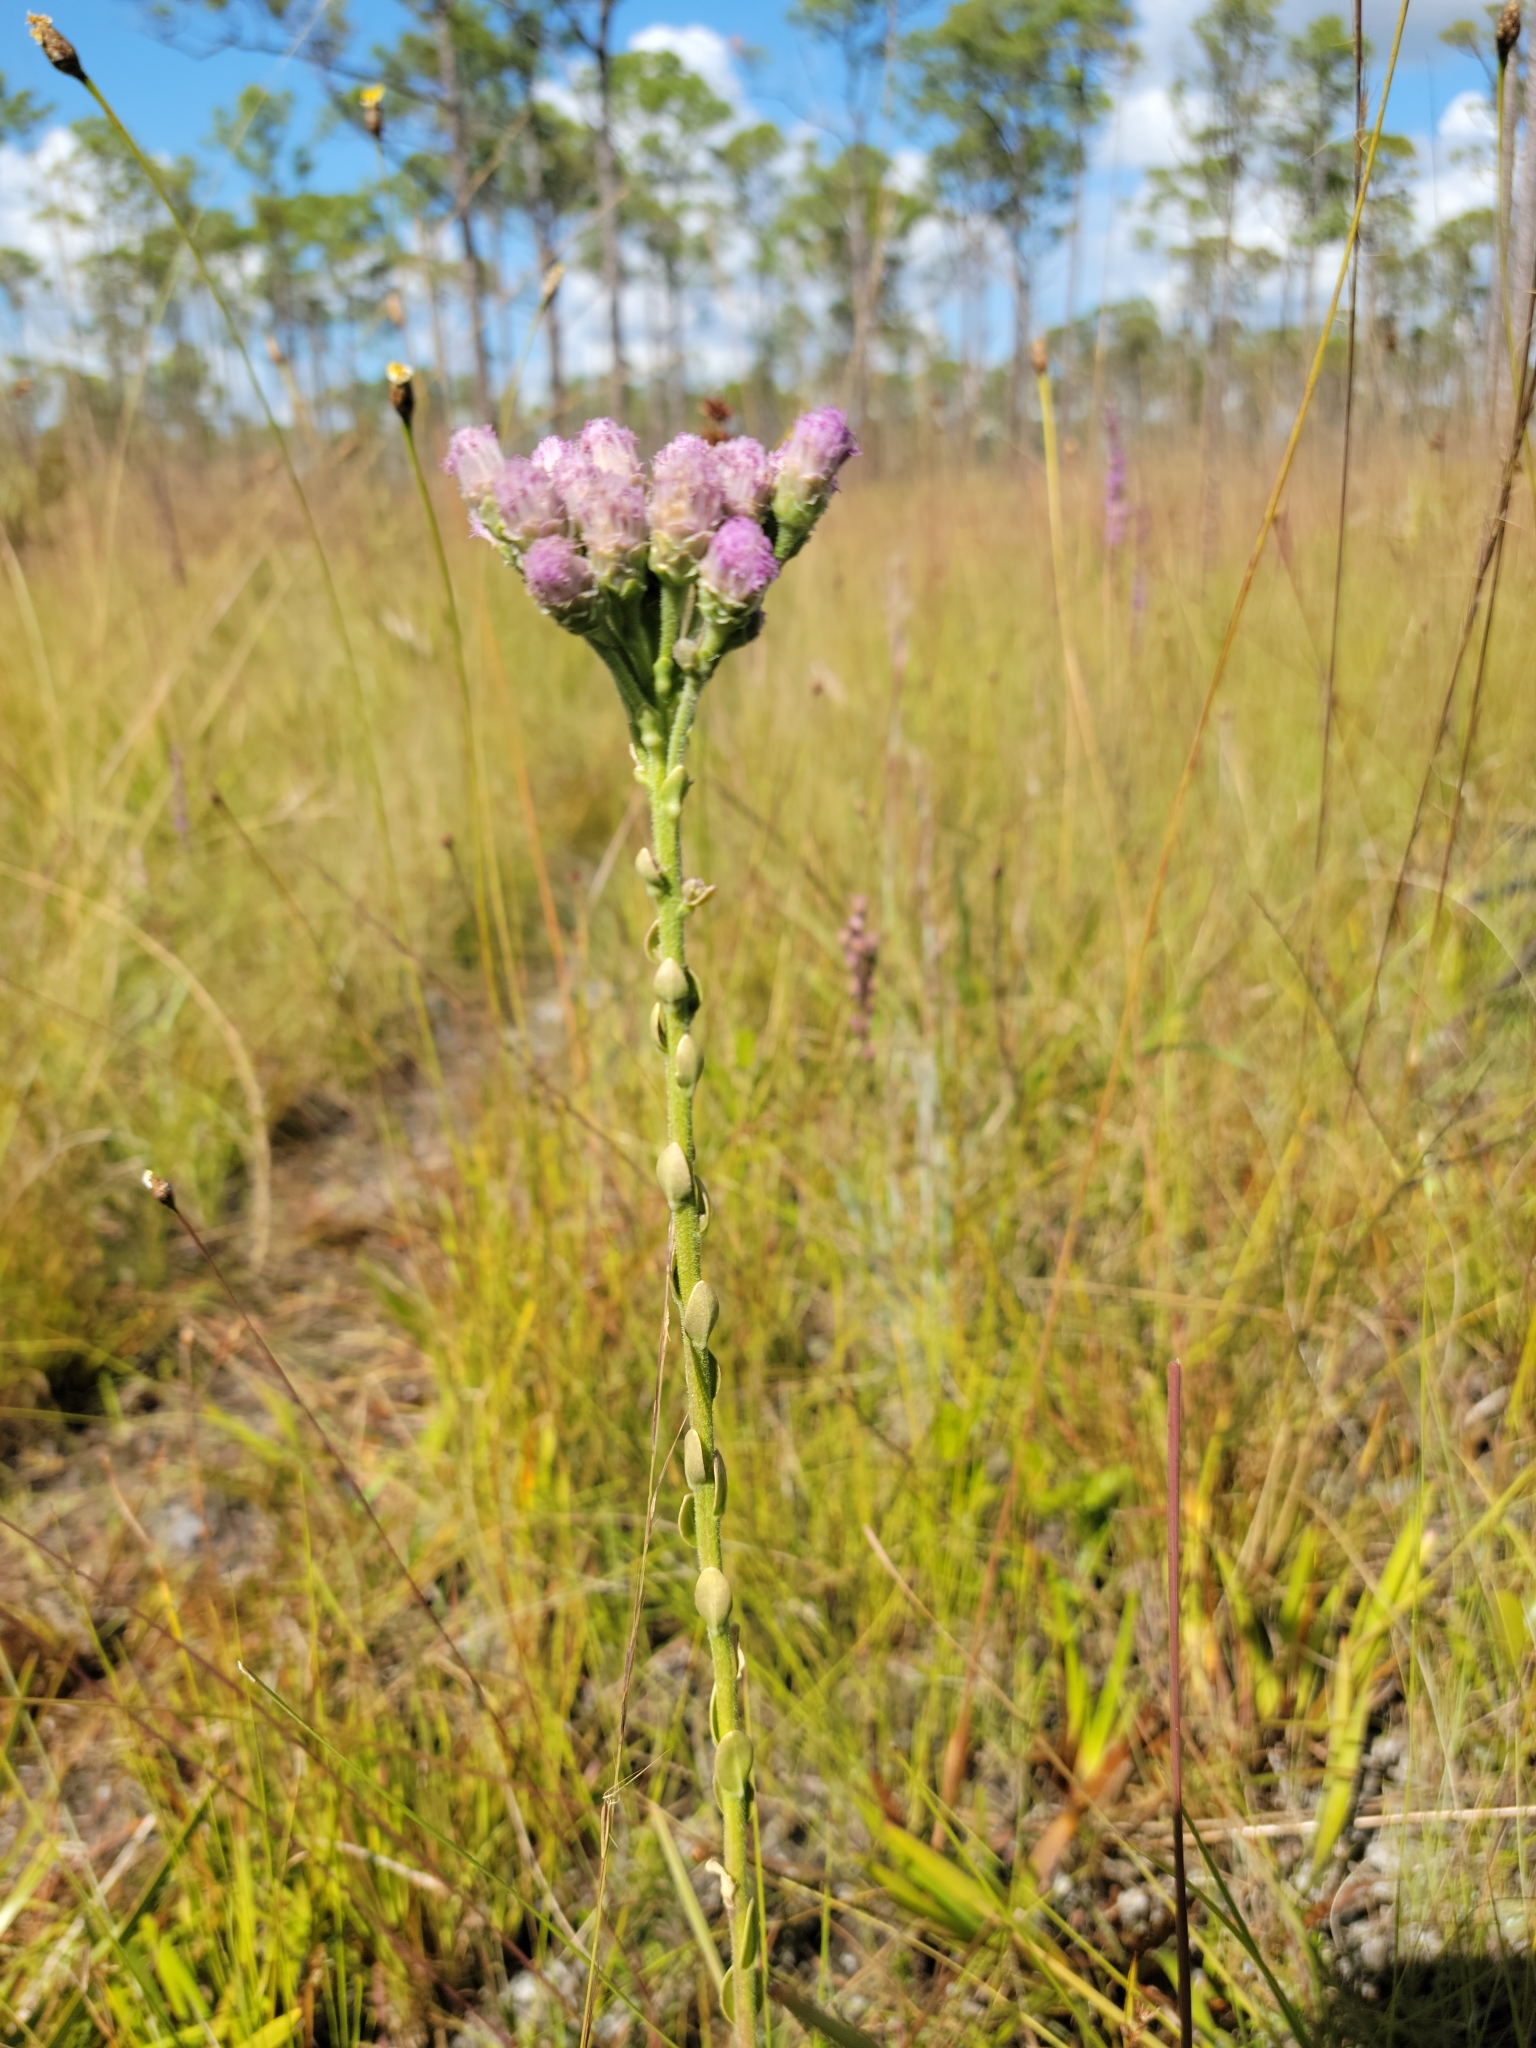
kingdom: Plantae
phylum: Tracheophyta
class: Magnoliopsida
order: Asterales
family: Asteraceae
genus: Carphephorus
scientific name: Carphephorus corymbosus
